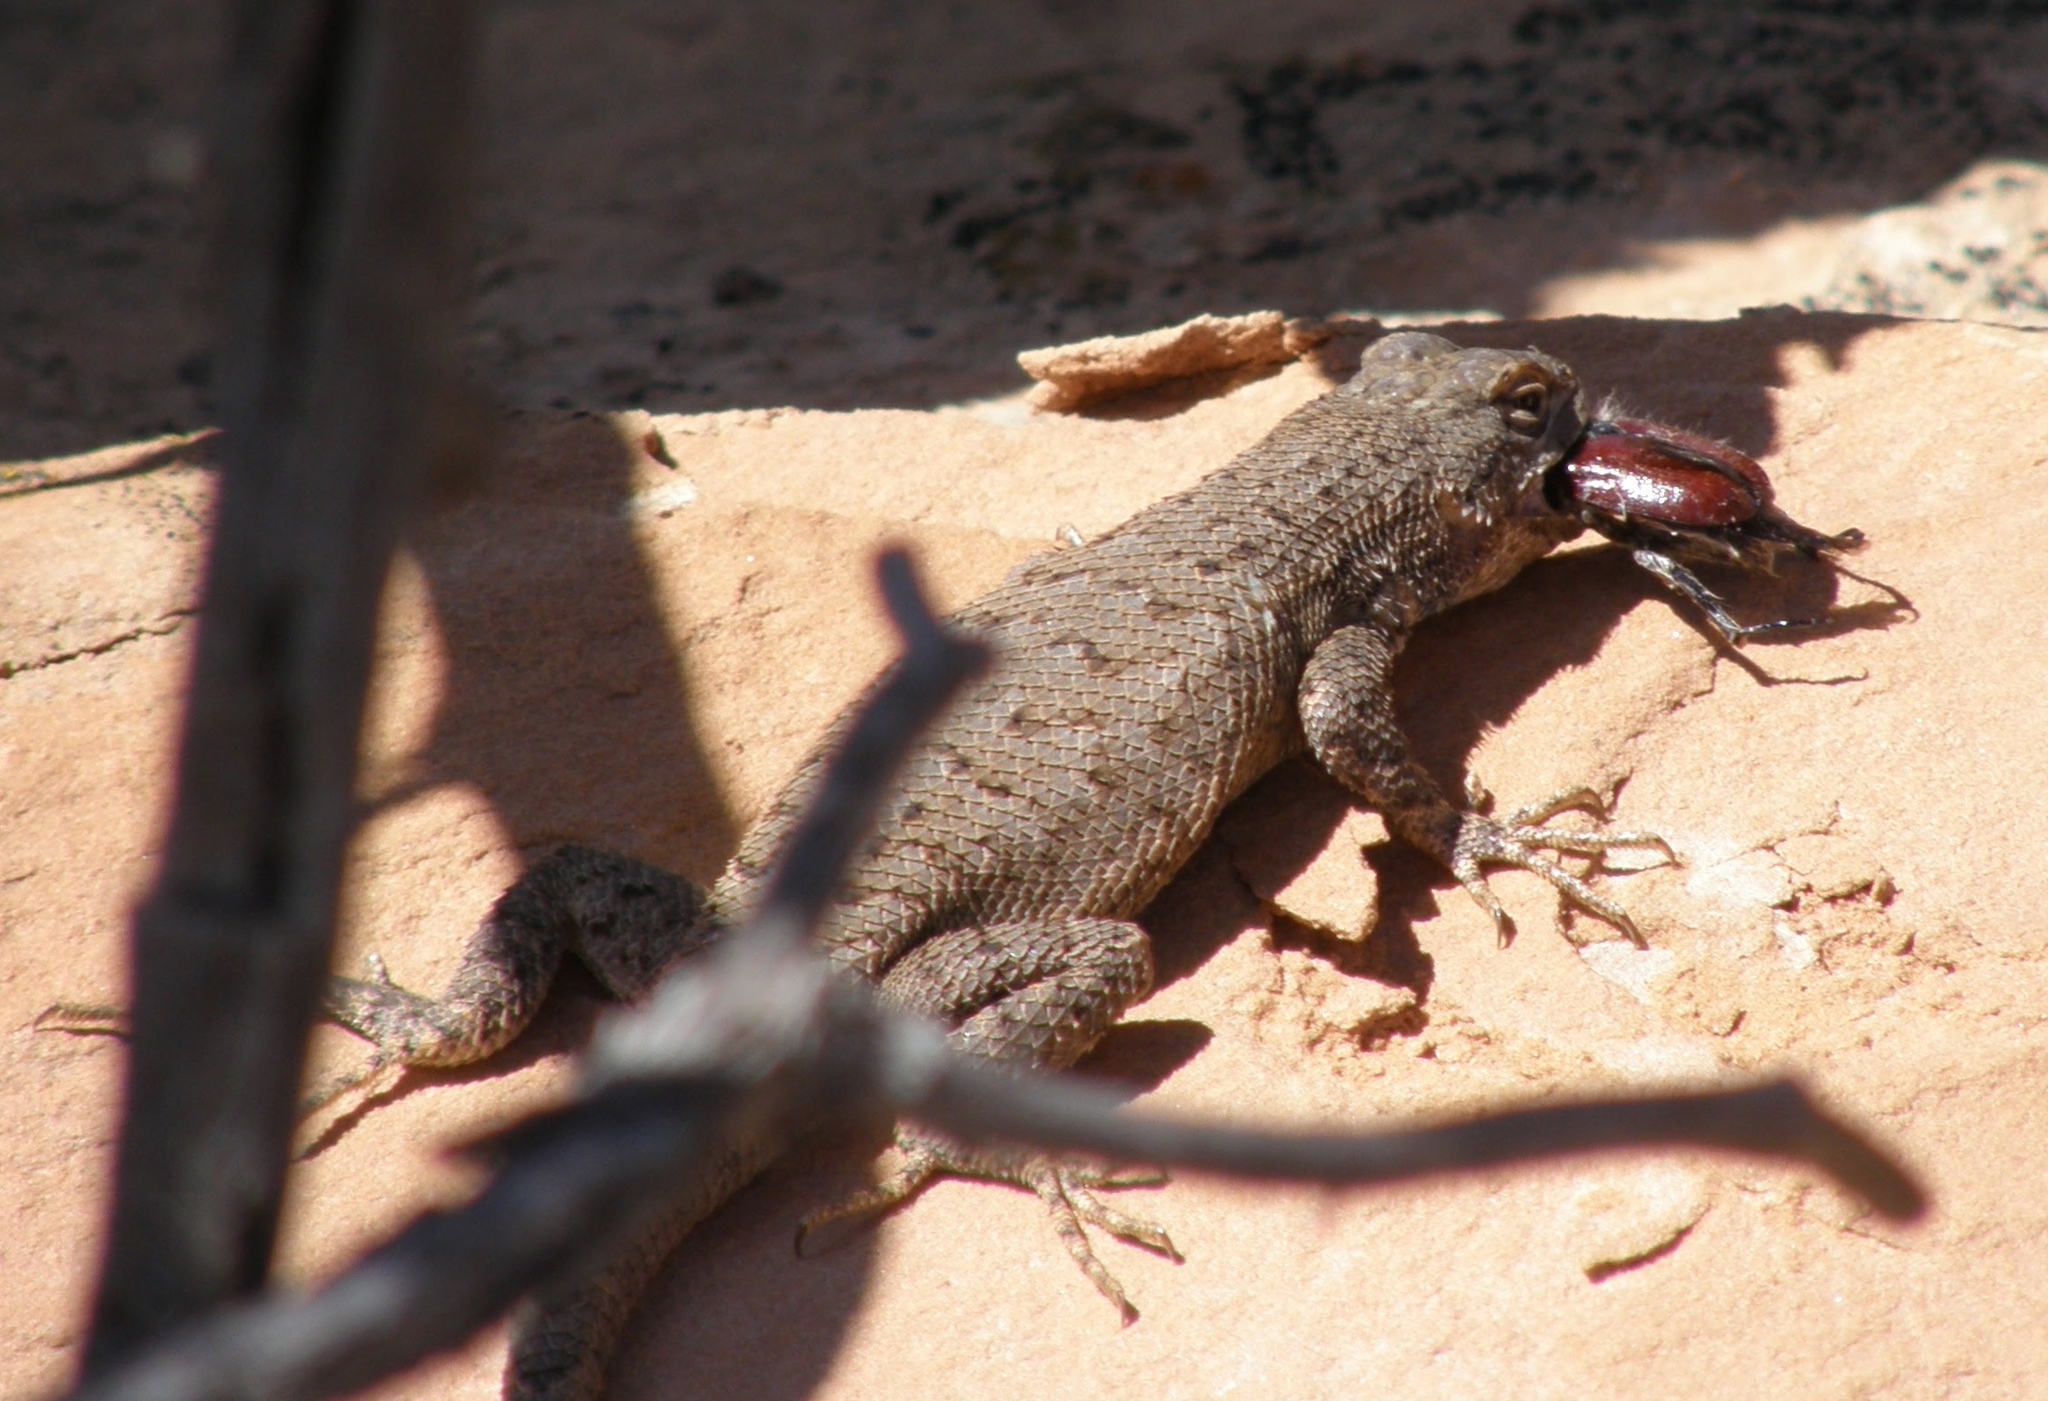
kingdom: Animalia
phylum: Chordata
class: Squamata
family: Phrynosomatidae
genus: Sceloporus
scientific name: Sceloporus tristichus
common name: Plateau fence lizard
